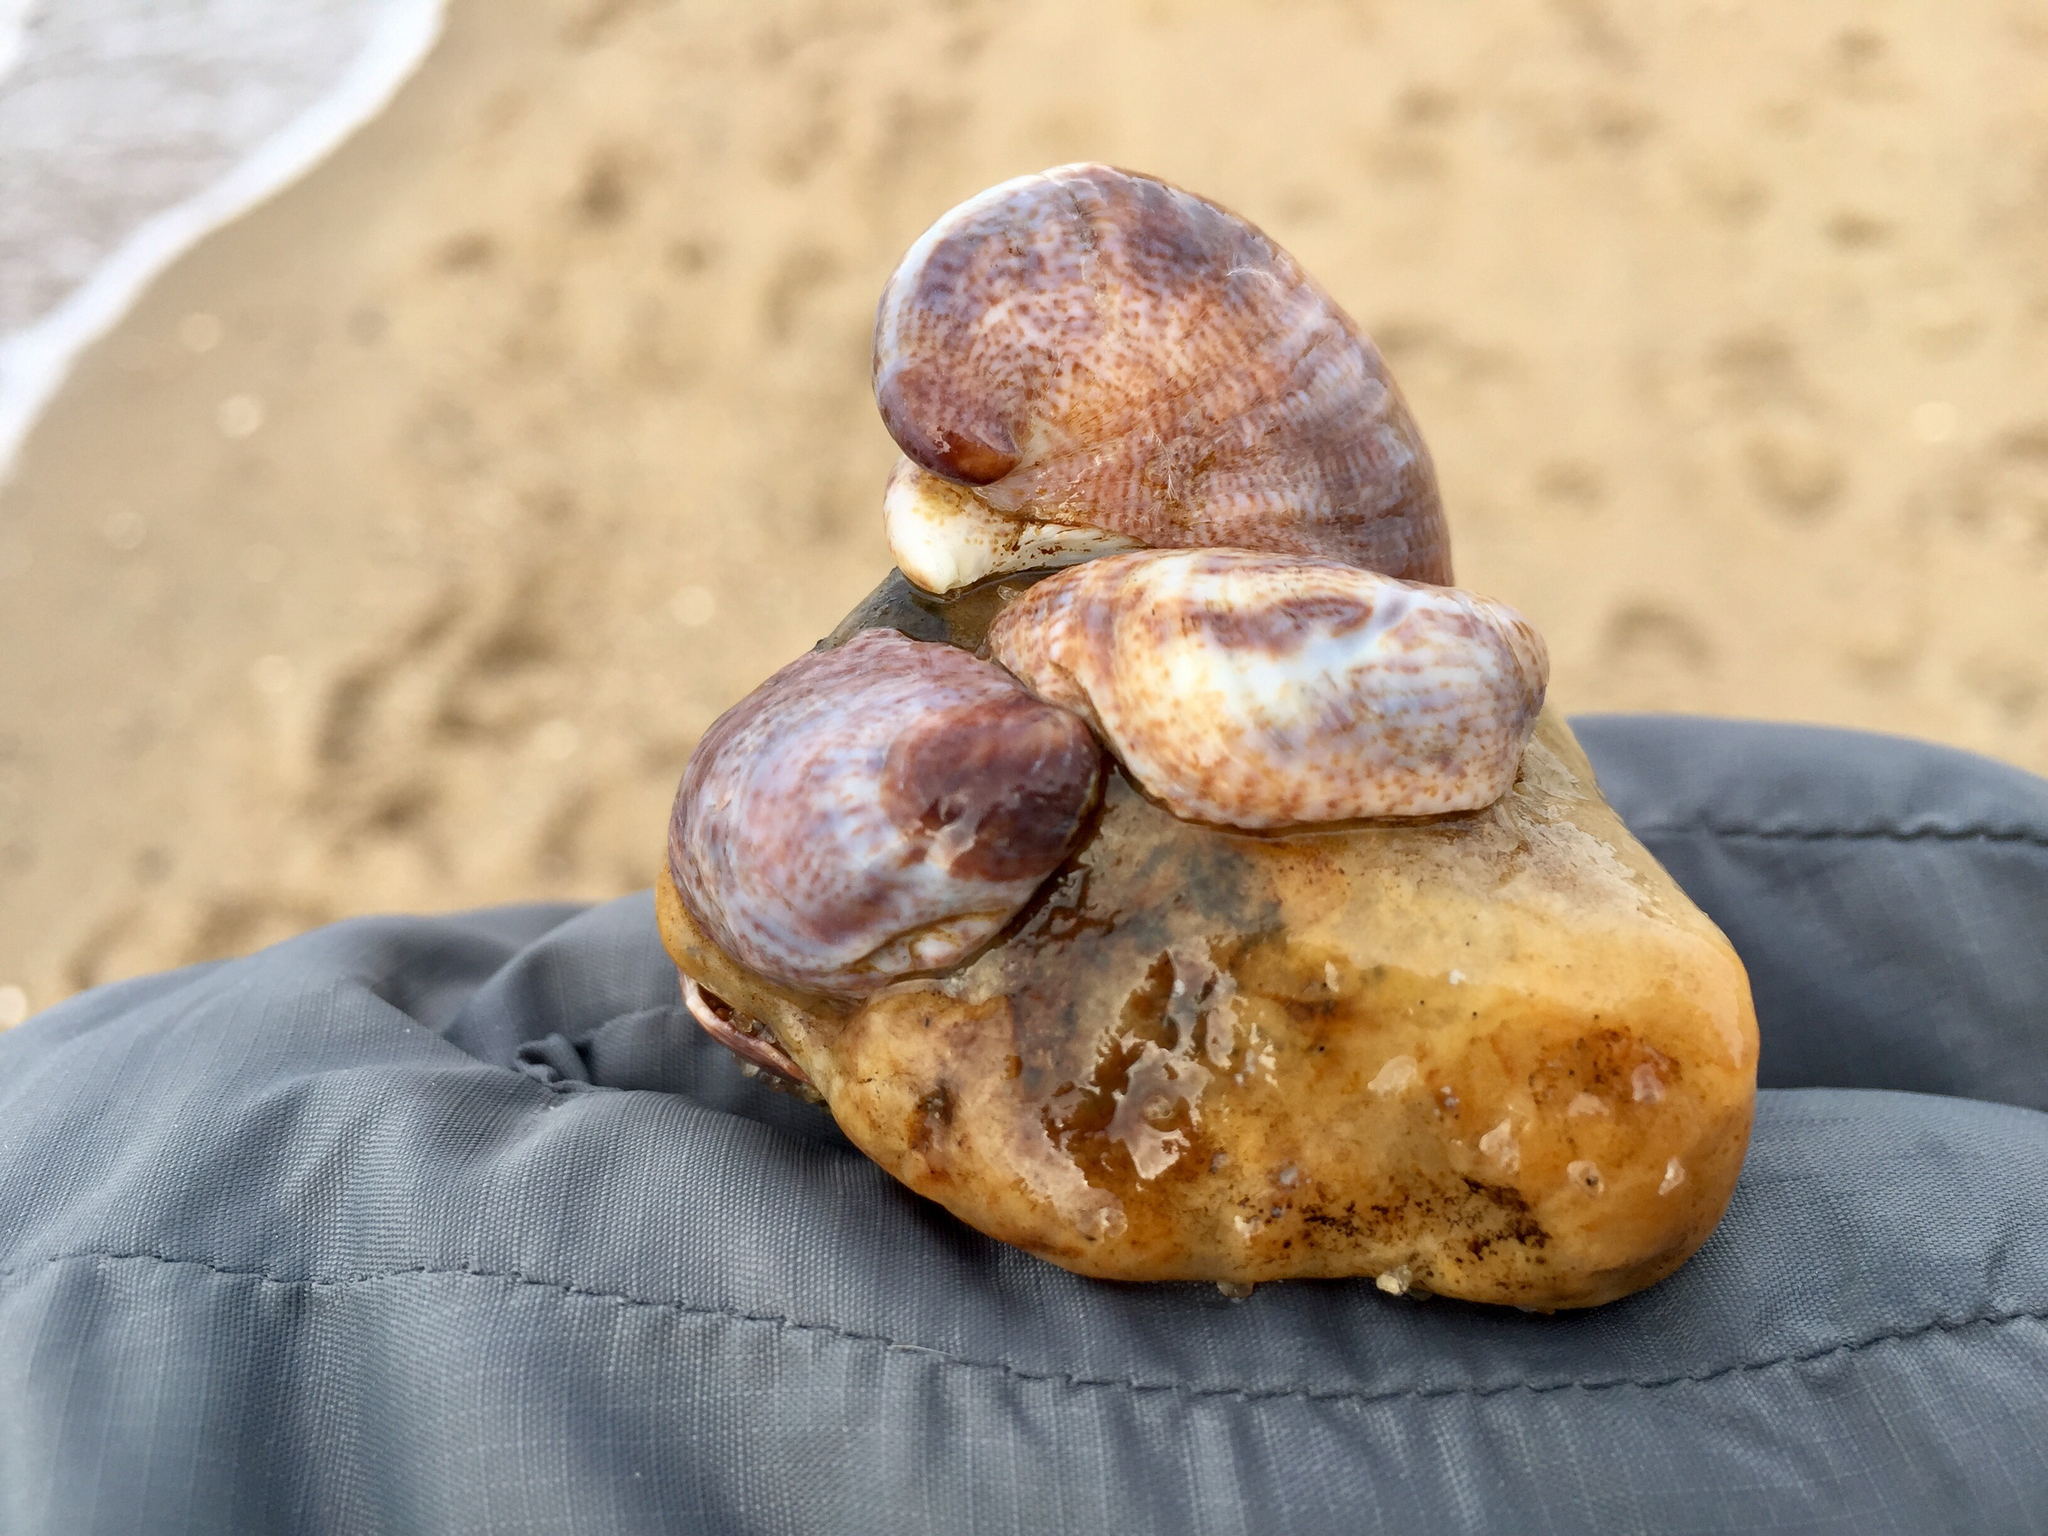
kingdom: Animalia
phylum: Mollusca
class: Gastropoda
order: Littorinimorpha
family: Calyptraeidae
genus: Crepidula
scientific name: Crepidula fornicata
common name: Slipper limpet
